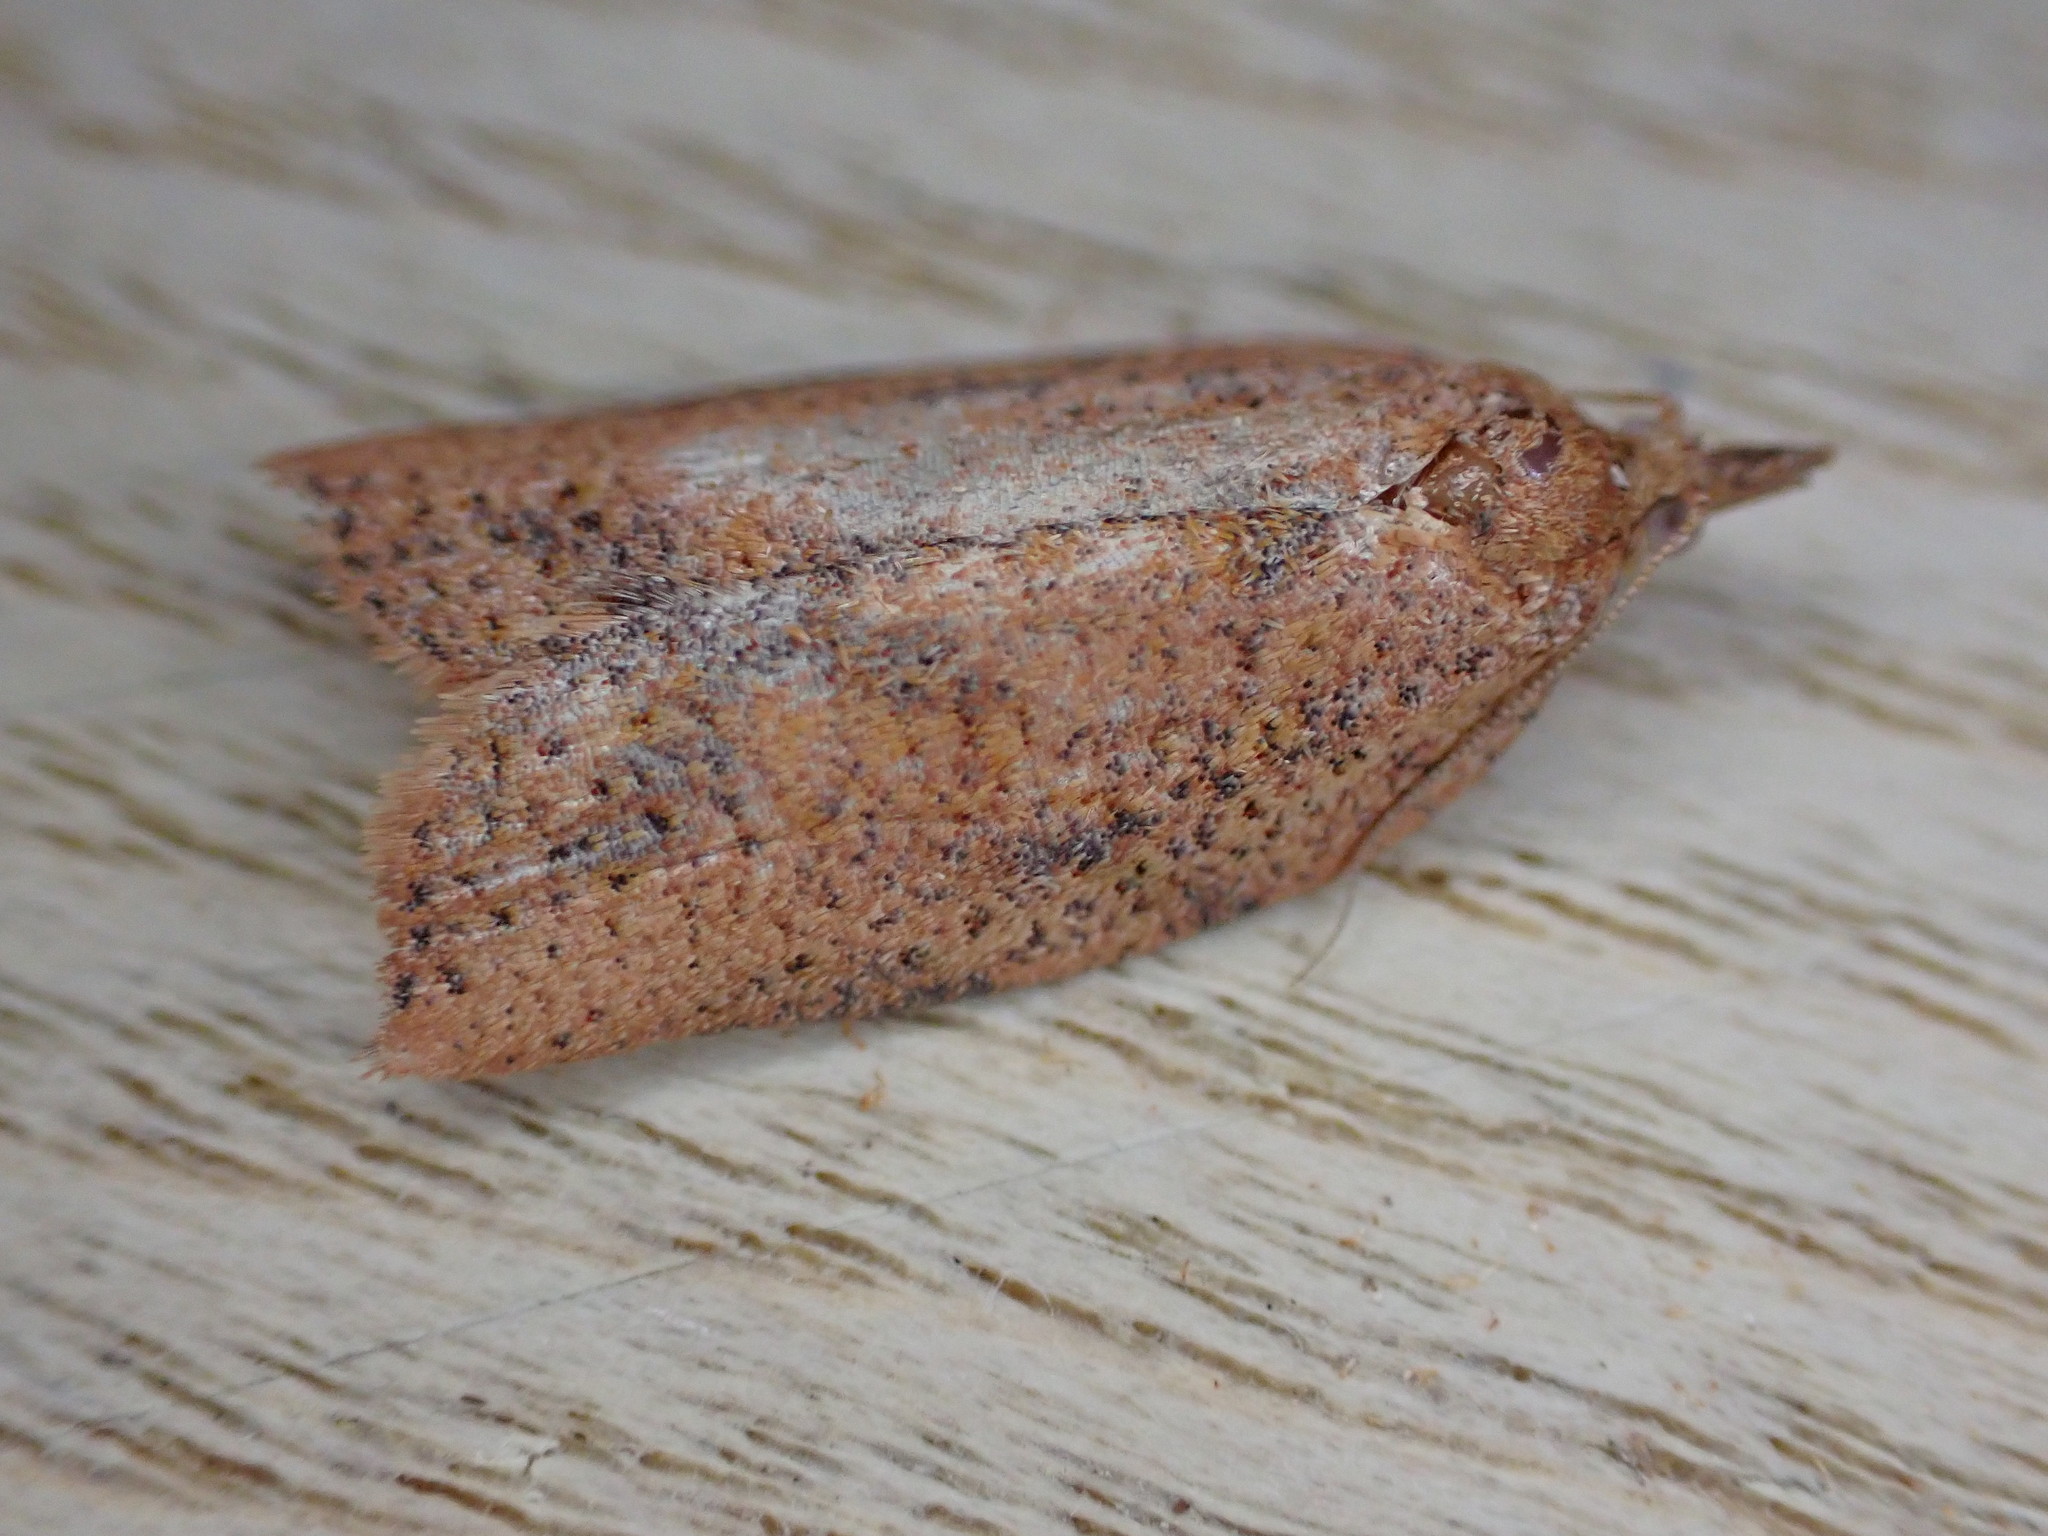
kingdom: Animalia
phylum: Arthropoda
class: Insecta
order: Lepidoptera
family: Tortricidae
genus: Epiphyas
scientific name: Epiphyas postvittana
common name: Light brown apple moth
